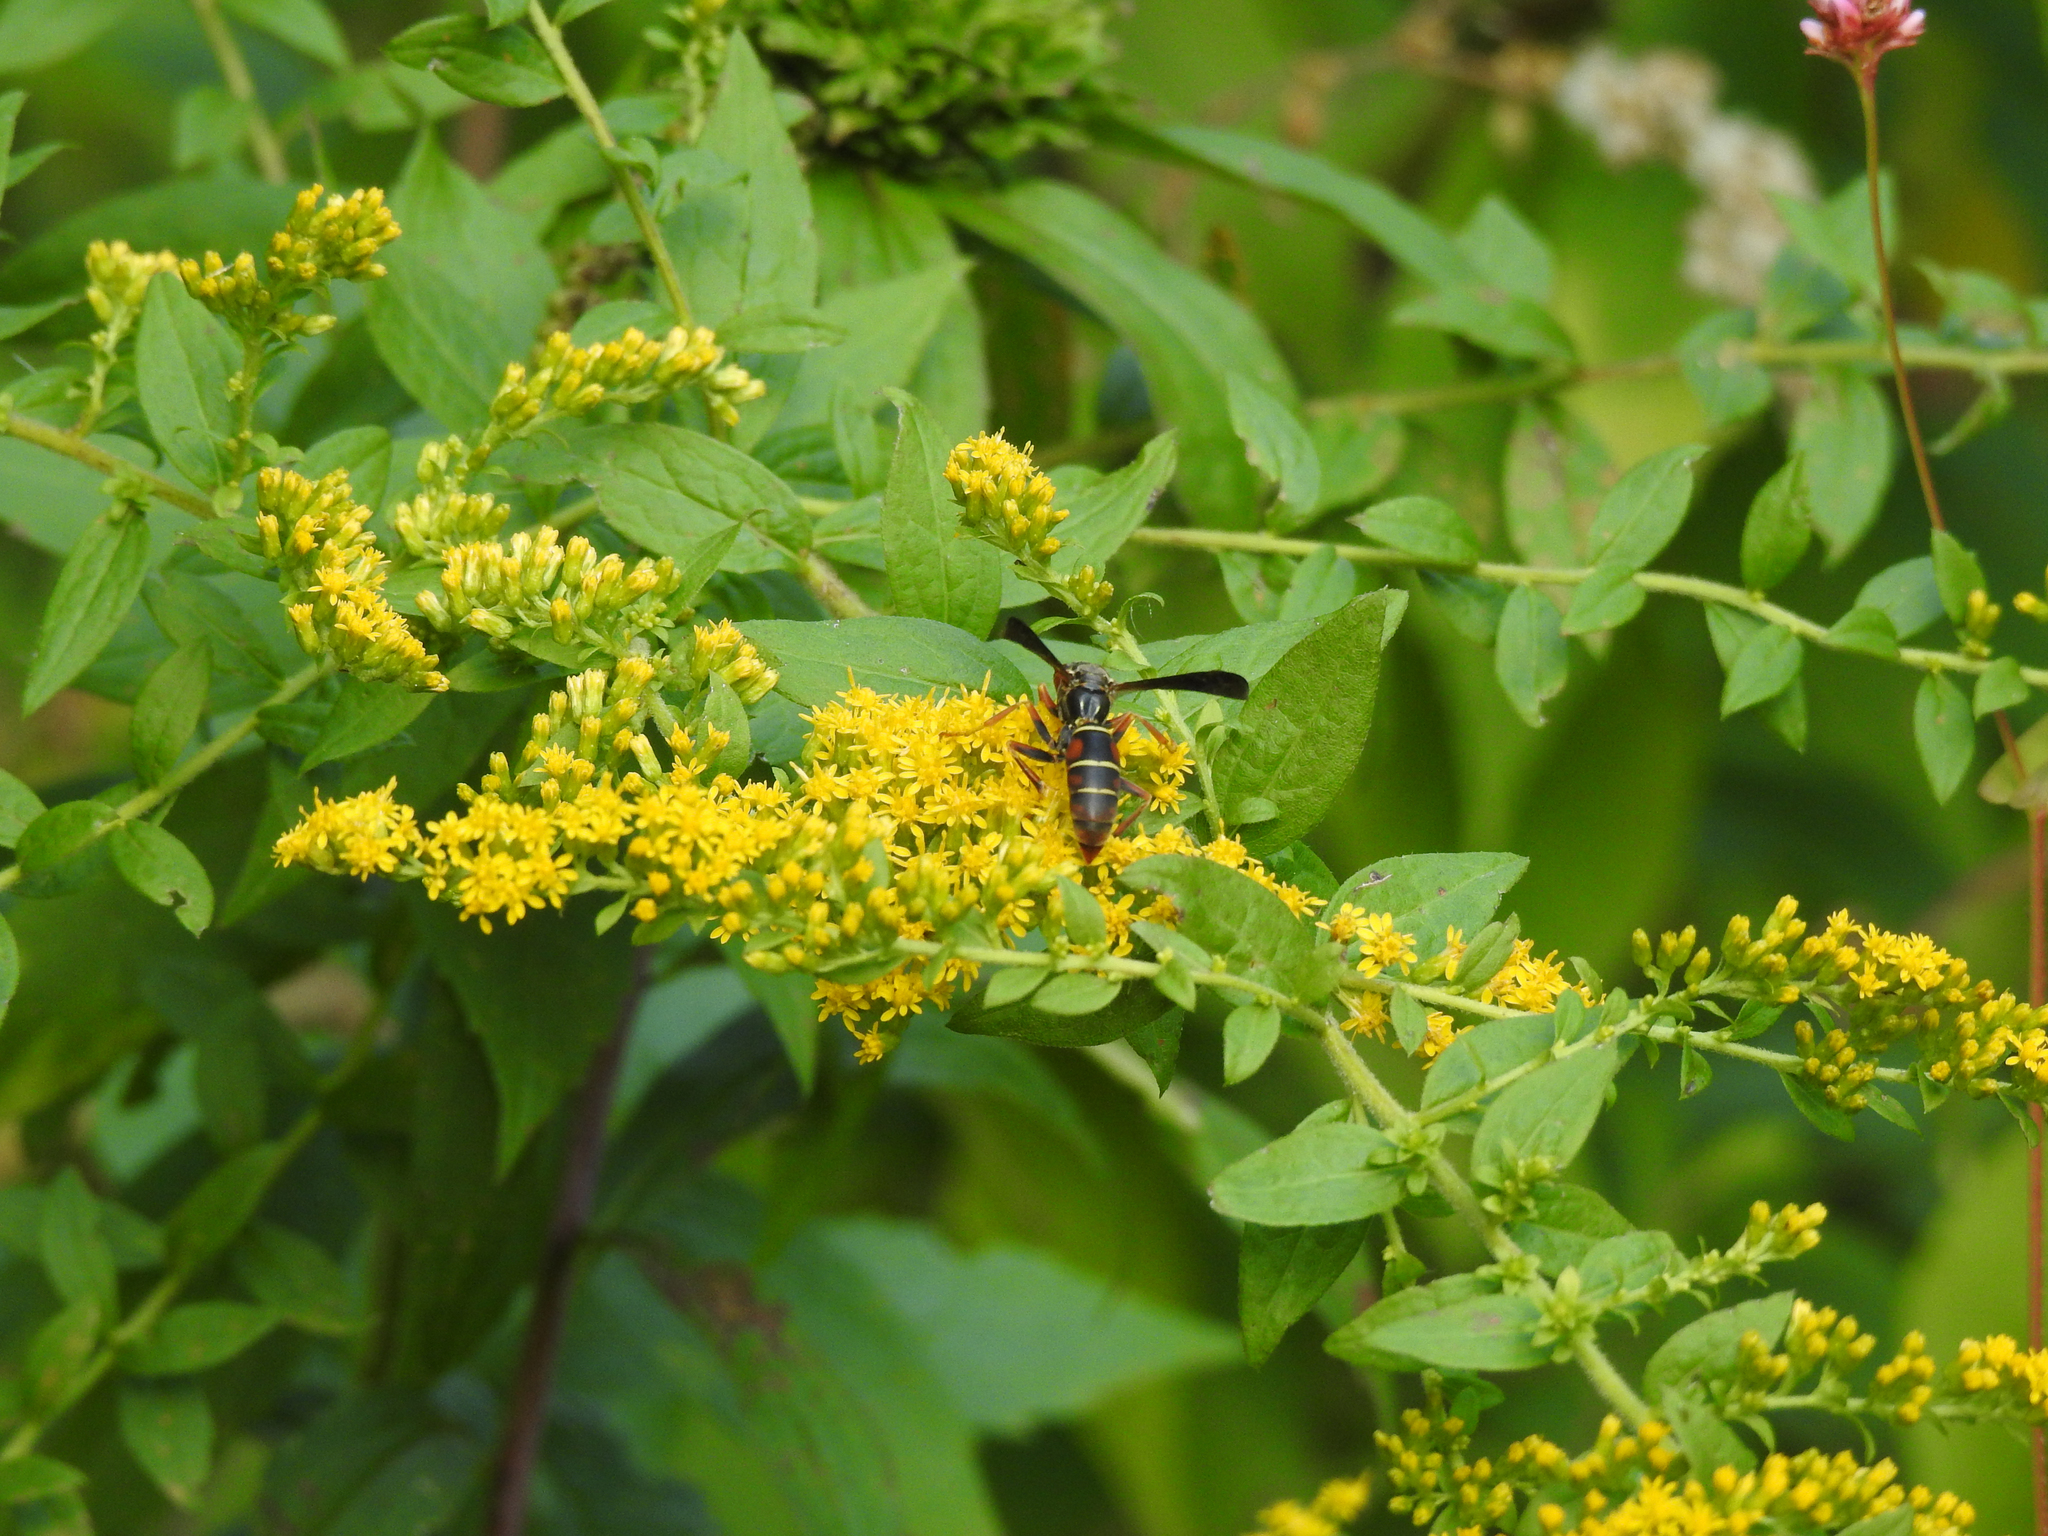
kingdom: Animalia
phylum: Arthropoda
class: Insecta
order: Hymenoptera
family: Eumenidae
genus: Polistes
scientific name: Polistes fuscatus
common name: Dark paper wasp
